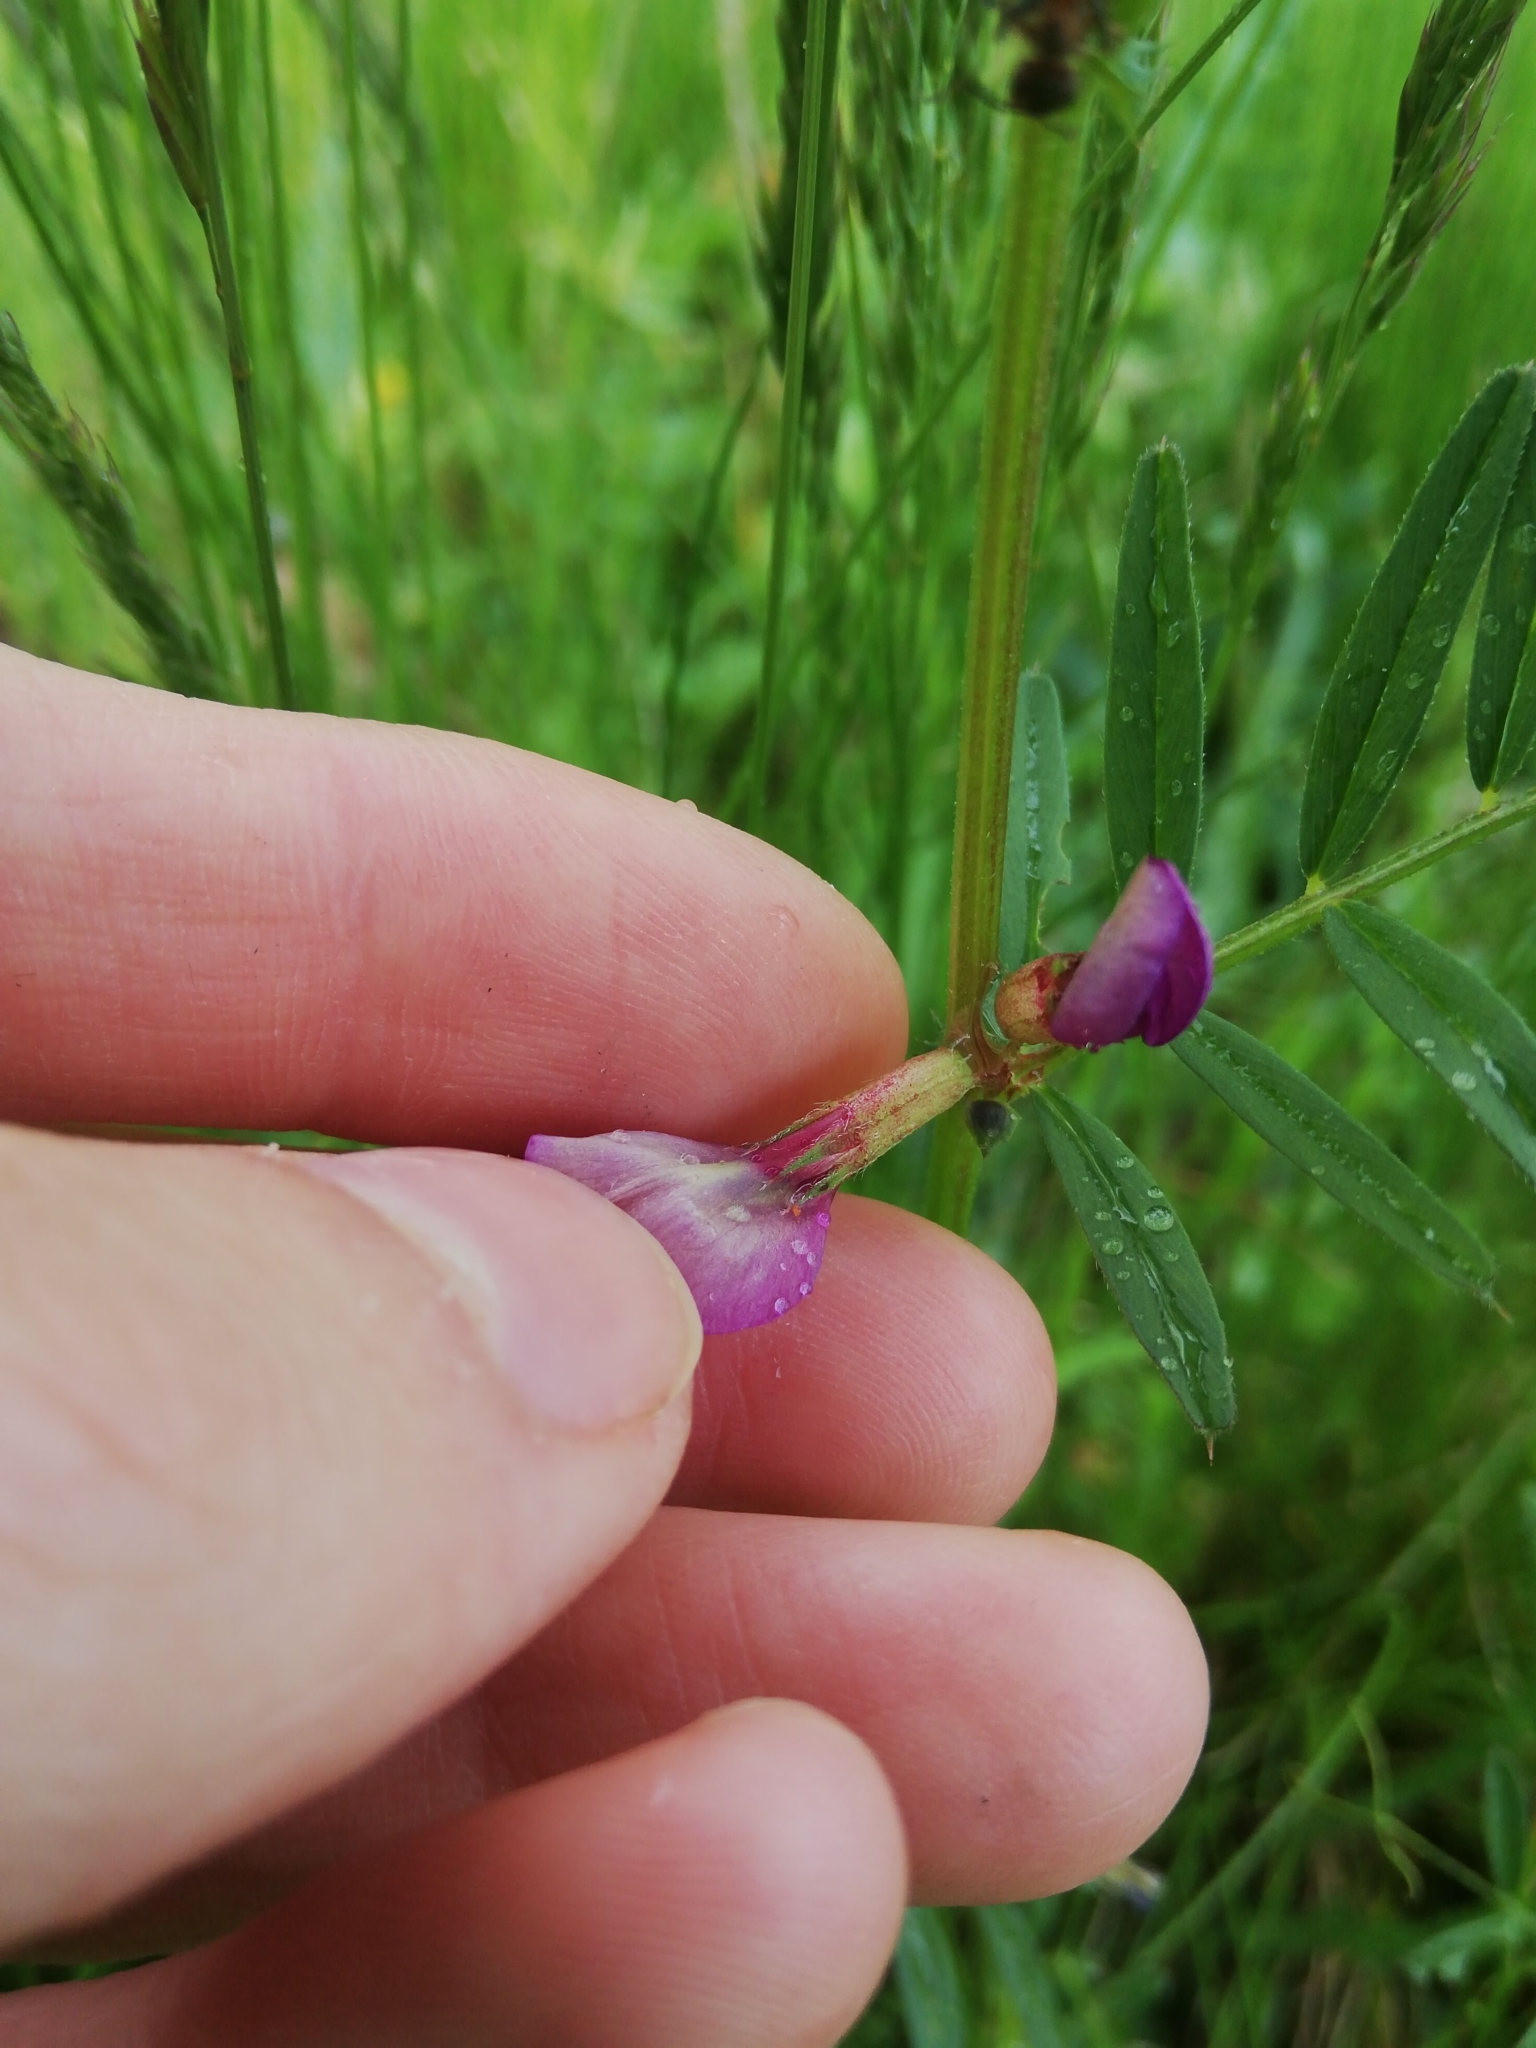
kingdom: Plantae
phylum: Tracheophyta
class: Magnoliopsida
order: Fabales
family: Fabaceae
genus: Vicia
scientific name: Vicia sativa
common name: Garden vetch
